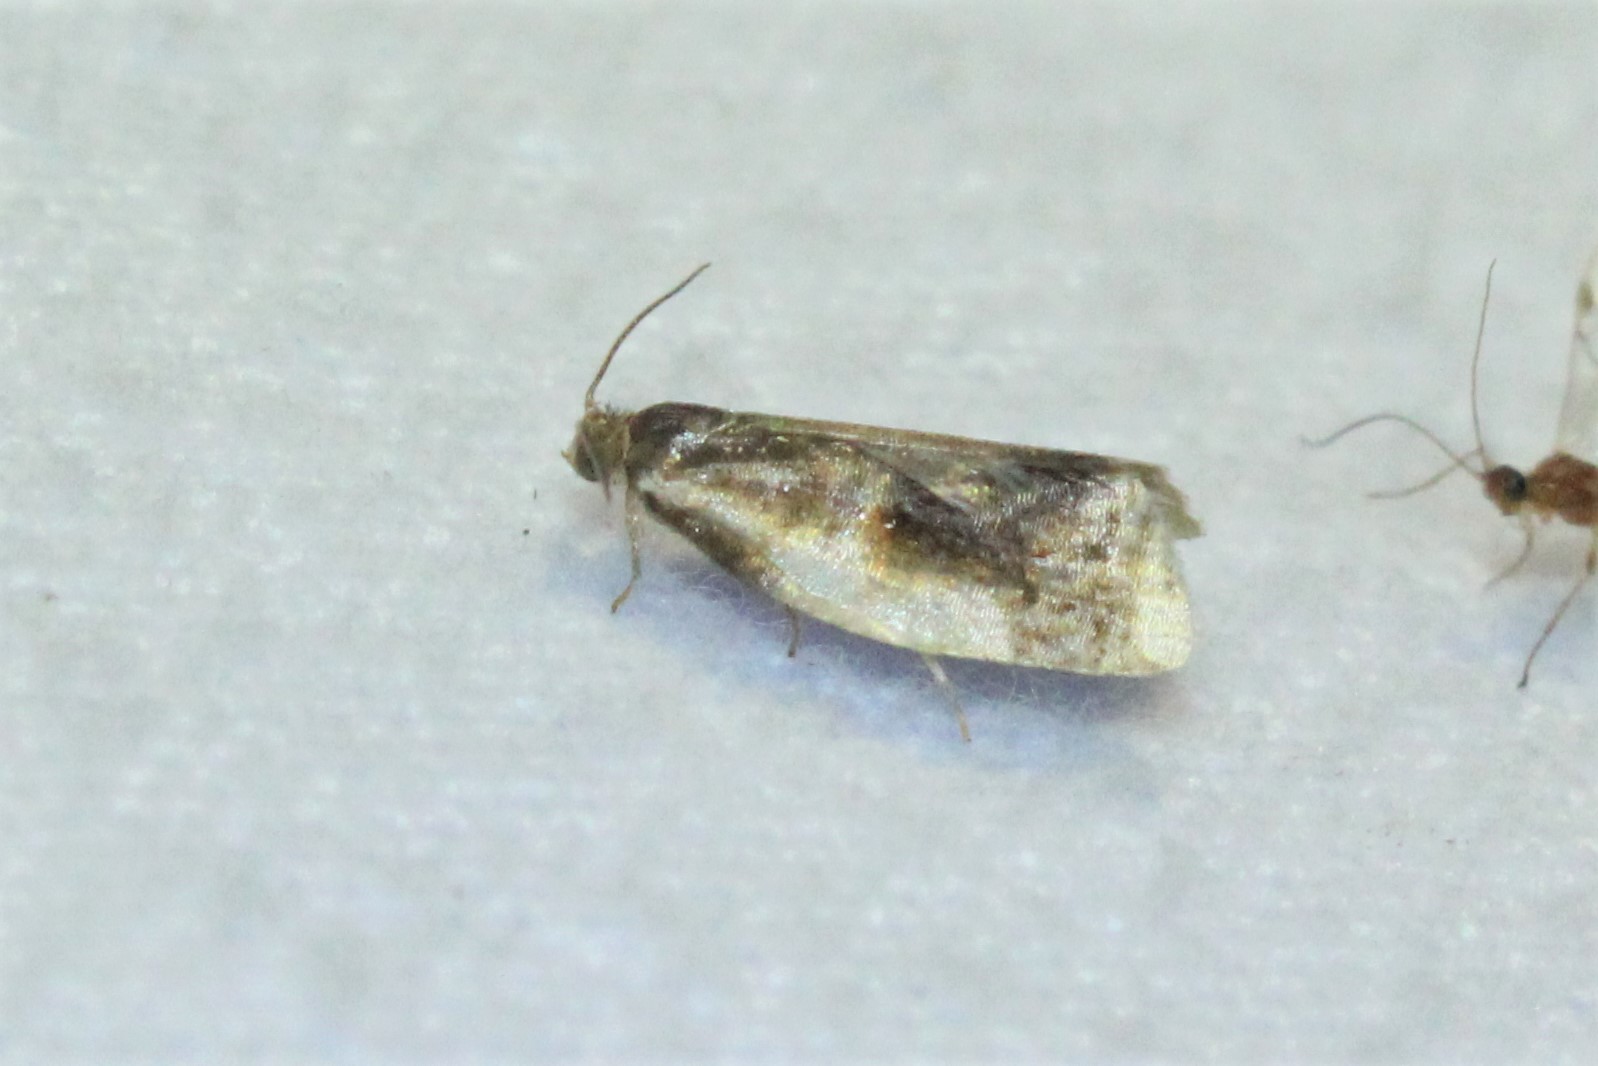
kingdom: Animalia
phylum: Arthropoda
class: Insecta
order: Lepidoptera
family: Tortricidae
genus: Clepsis
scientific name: Clepsis melaleucanus
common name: American apple tortrix
